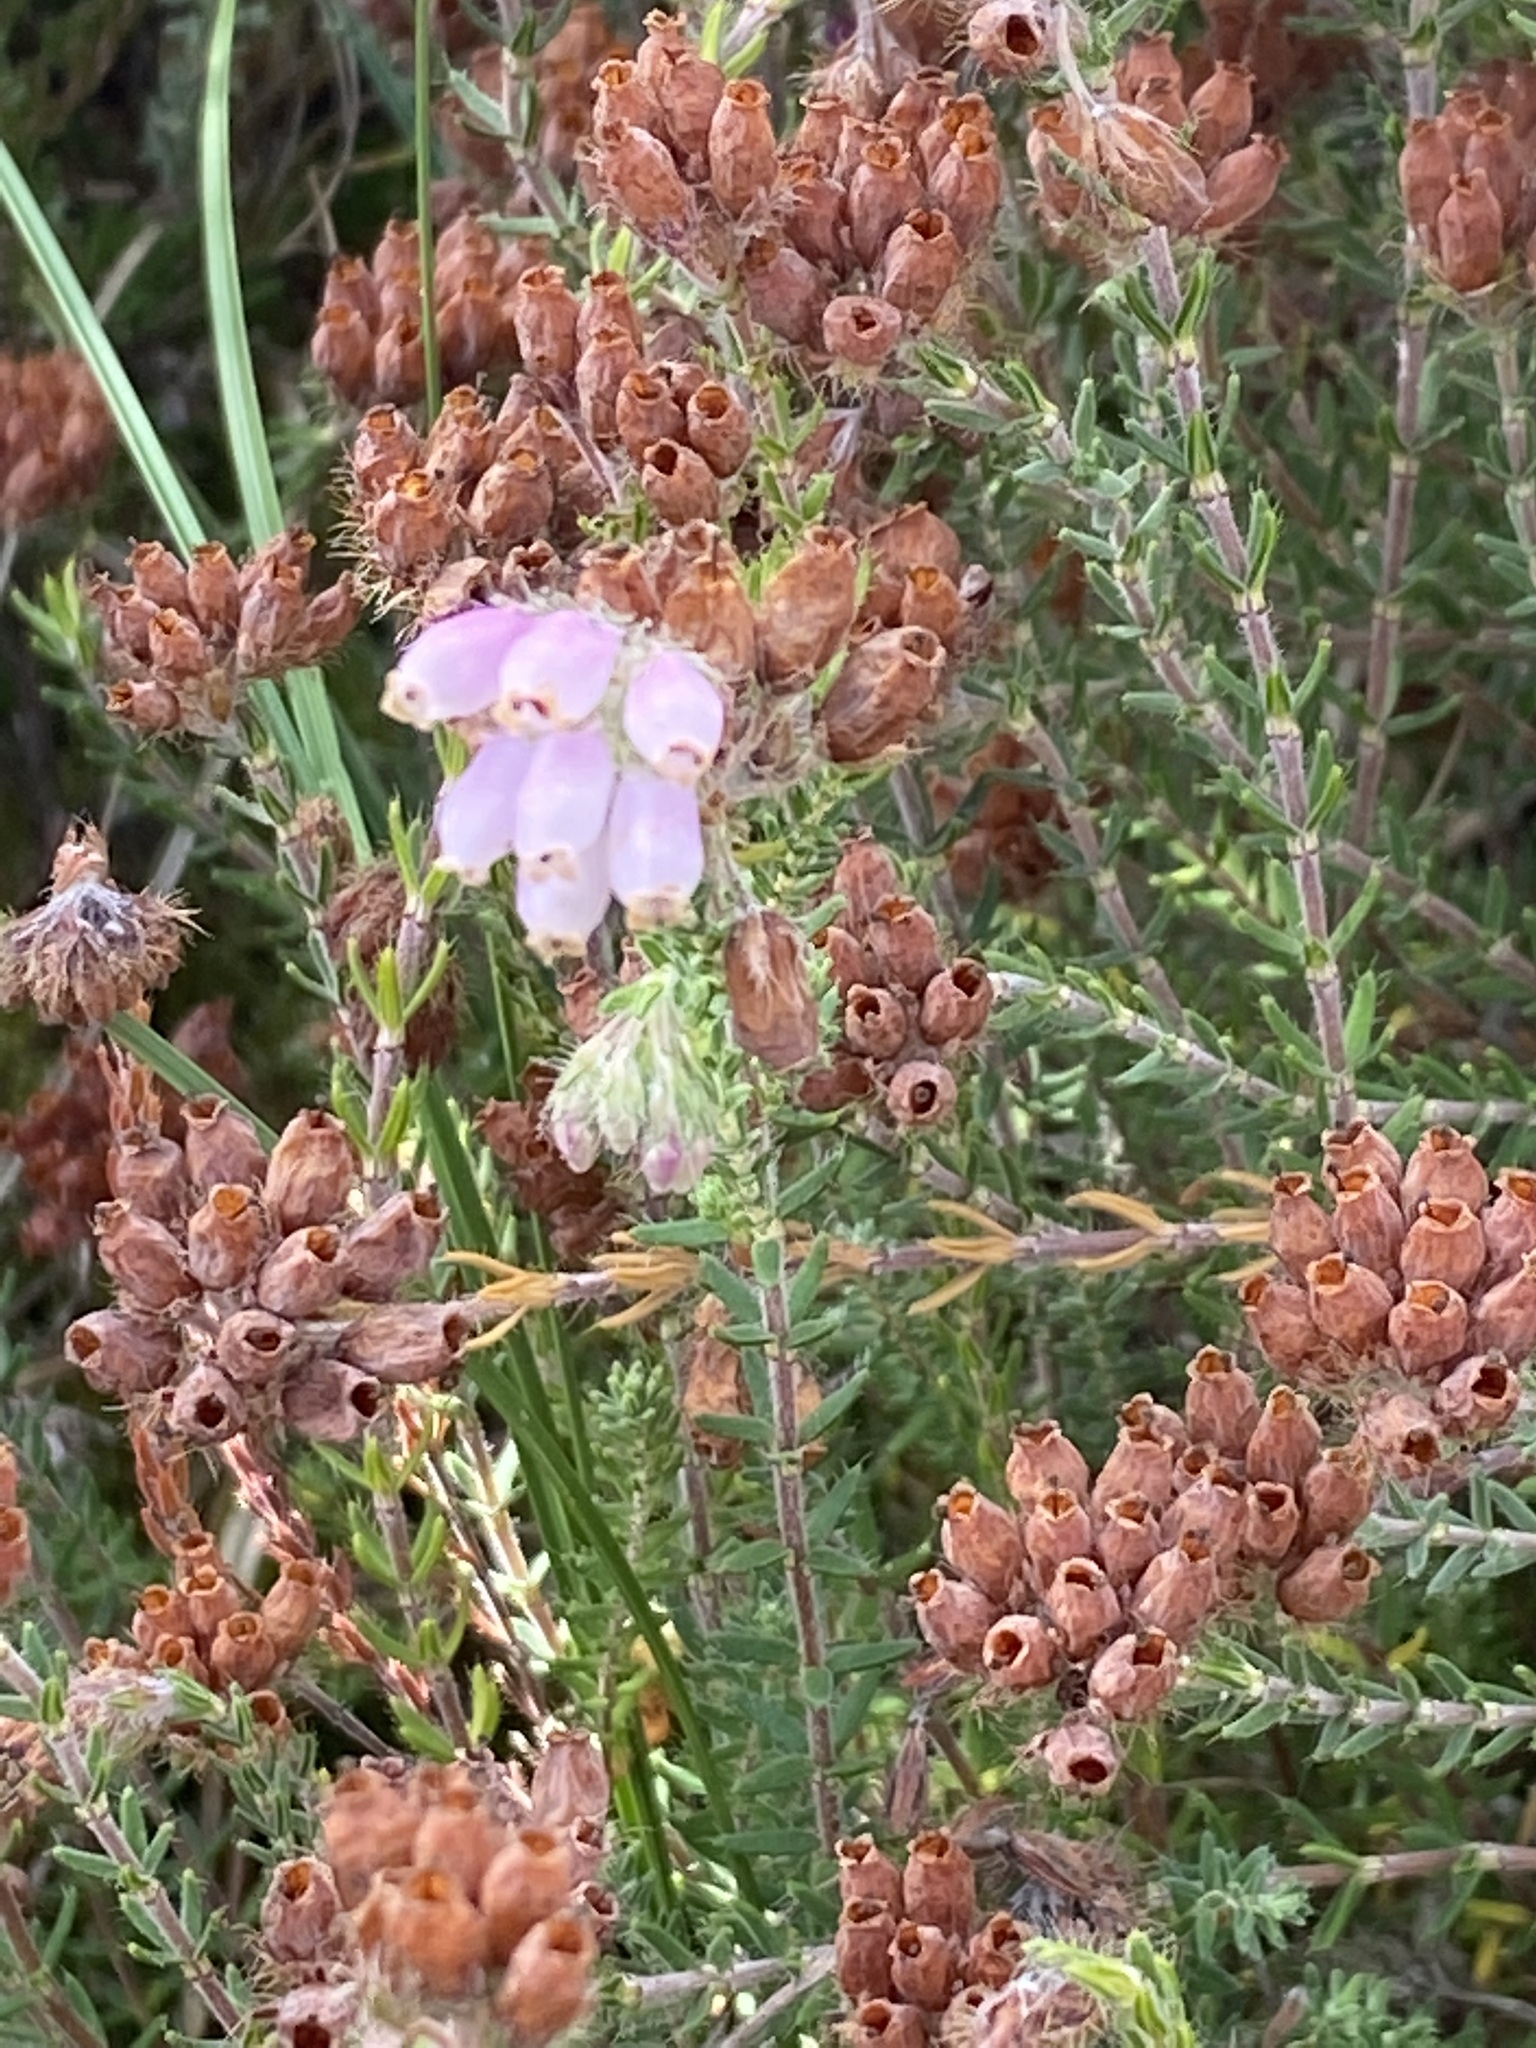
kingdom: Plantae
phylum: Tracheophyta
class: Magnoliopsida
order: Ericales
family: Ericaceae
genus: Erica
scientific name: Erica tetralix
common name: Cross-leaved heath
